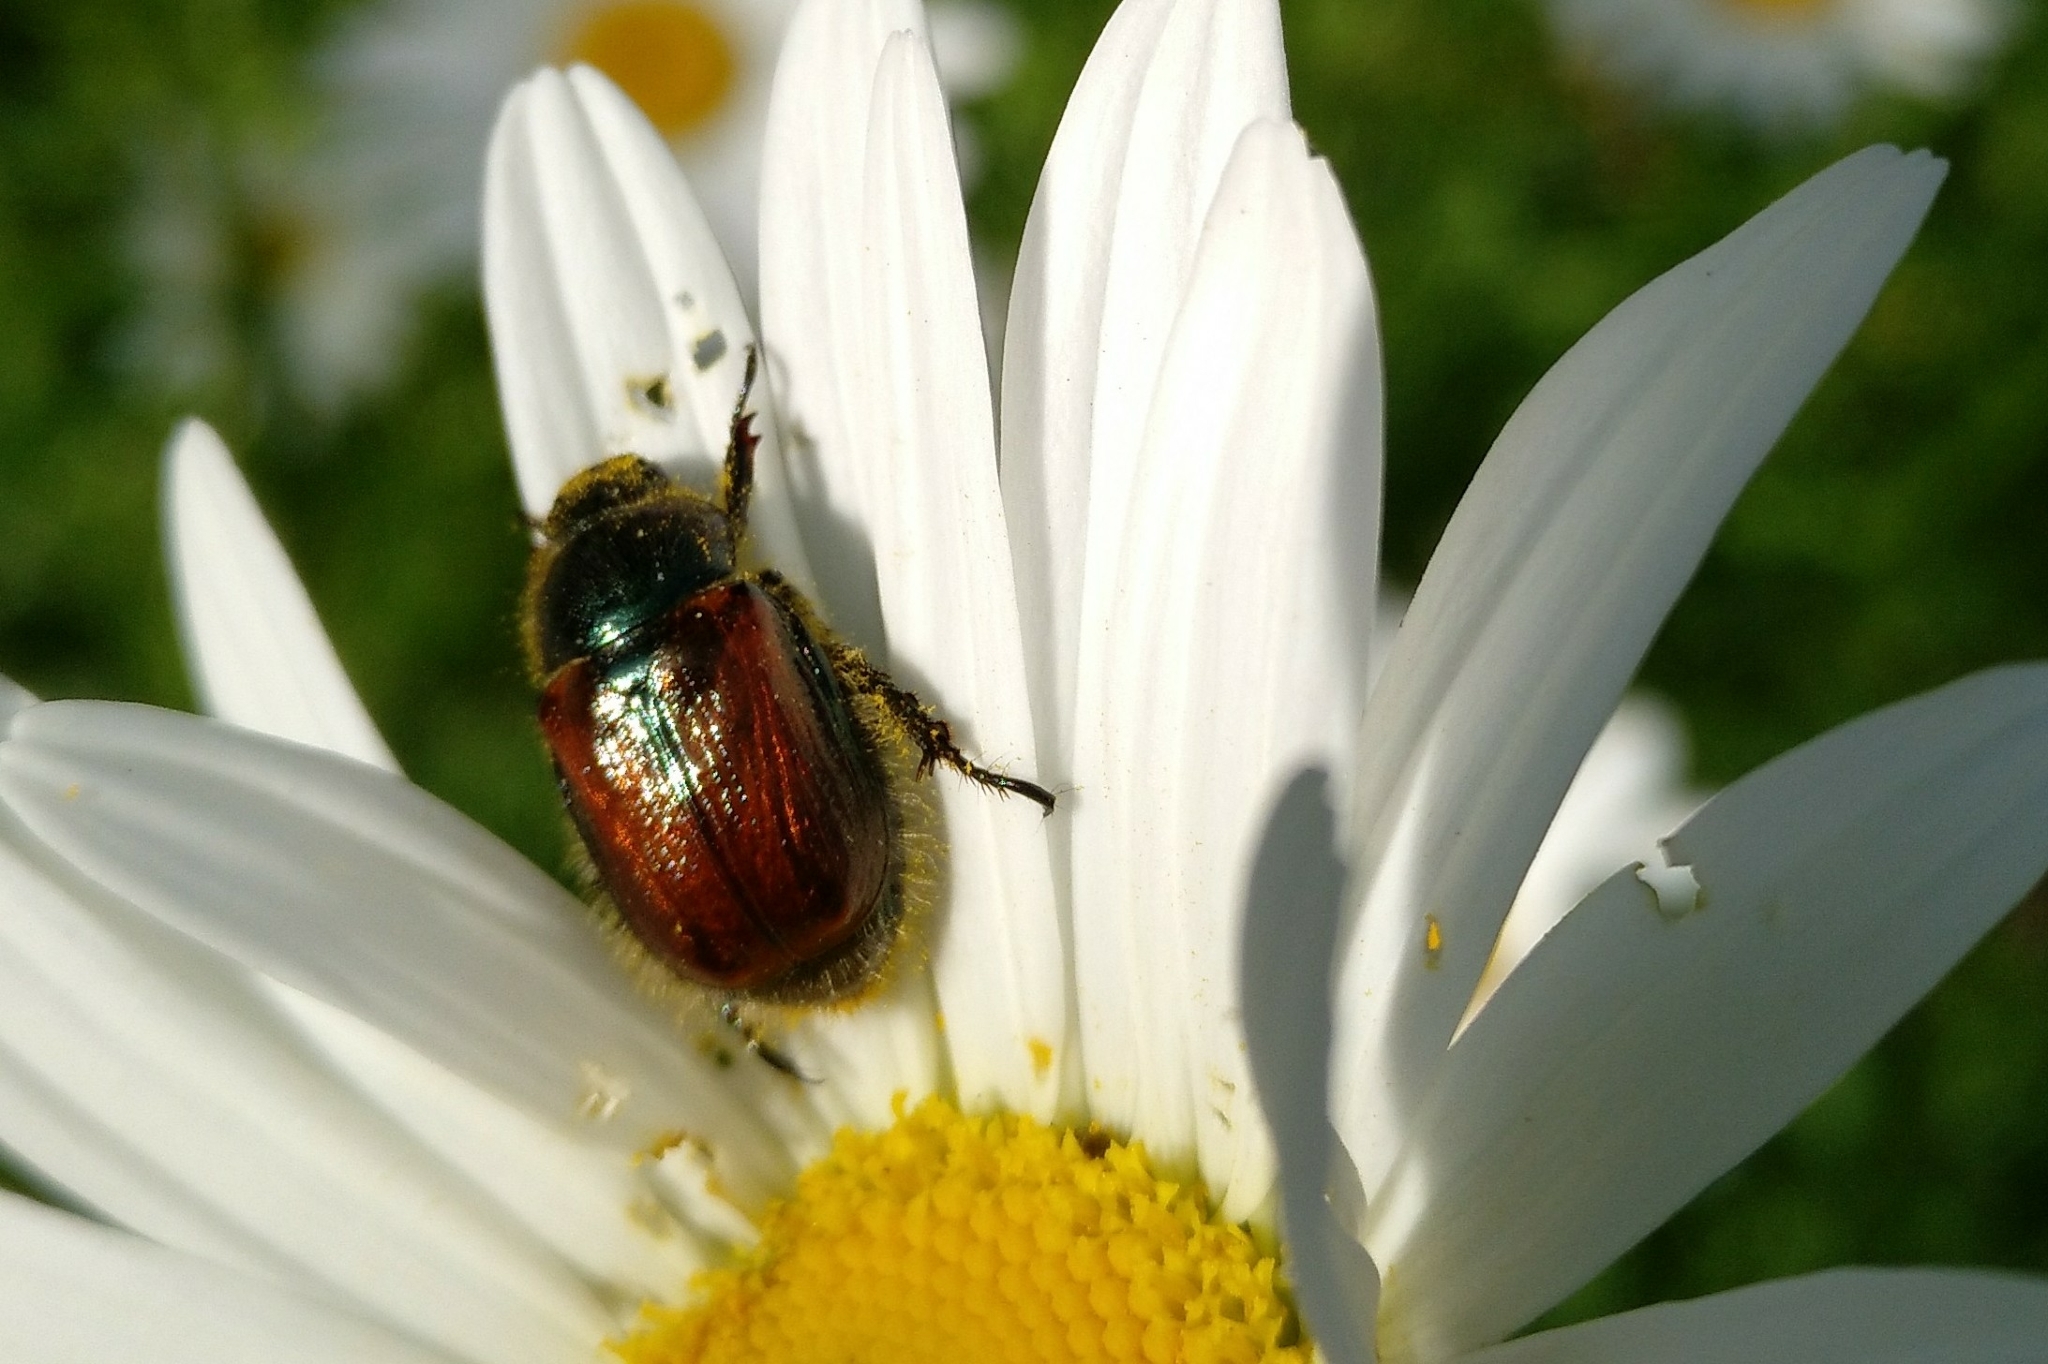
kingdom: Animalia
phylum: Arthropoda
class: Insecta
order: Coleoptera
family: Scarabaeidae
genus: Phyllopertha
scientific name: Phyllopertha horticola
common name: Garden chafer
